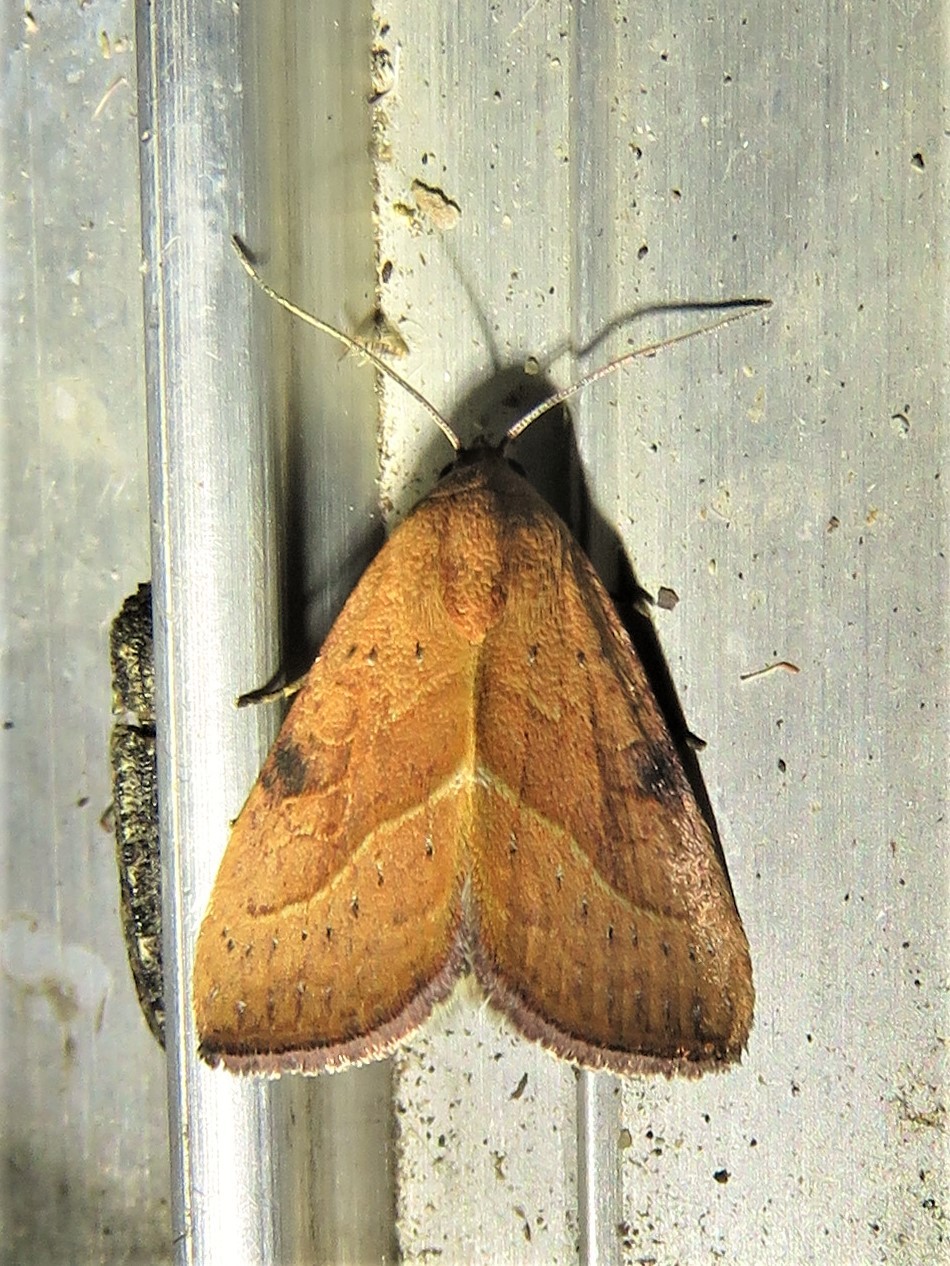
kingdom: Animalia
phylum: Arthropoda
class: Insecta
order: Lepidoptera
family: Noctuidae
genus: Galgula
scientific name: Galgula partita
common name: Wedgeling
